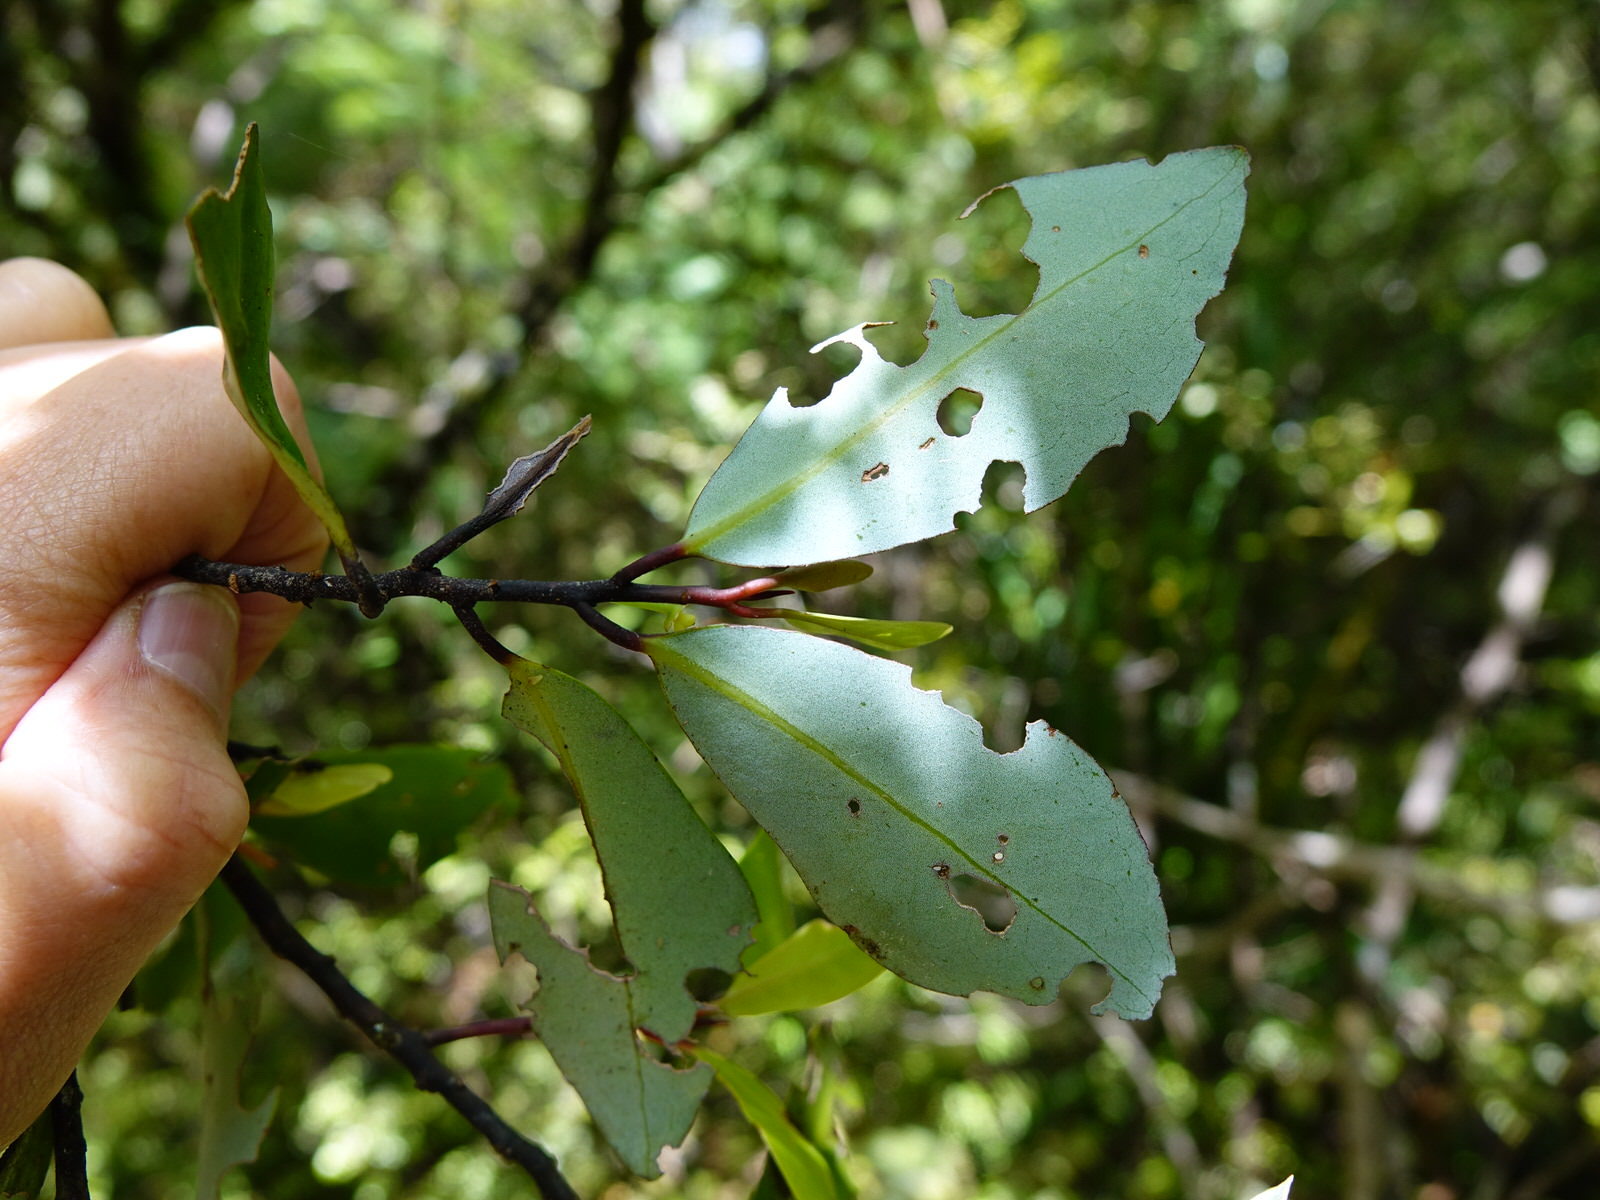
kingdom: Plantae
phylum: Tracheophyta
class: Magnoliopsida
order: Canellales
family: Winteraceae
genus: Pseudowintera
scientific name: Pseudowintera axillaris
